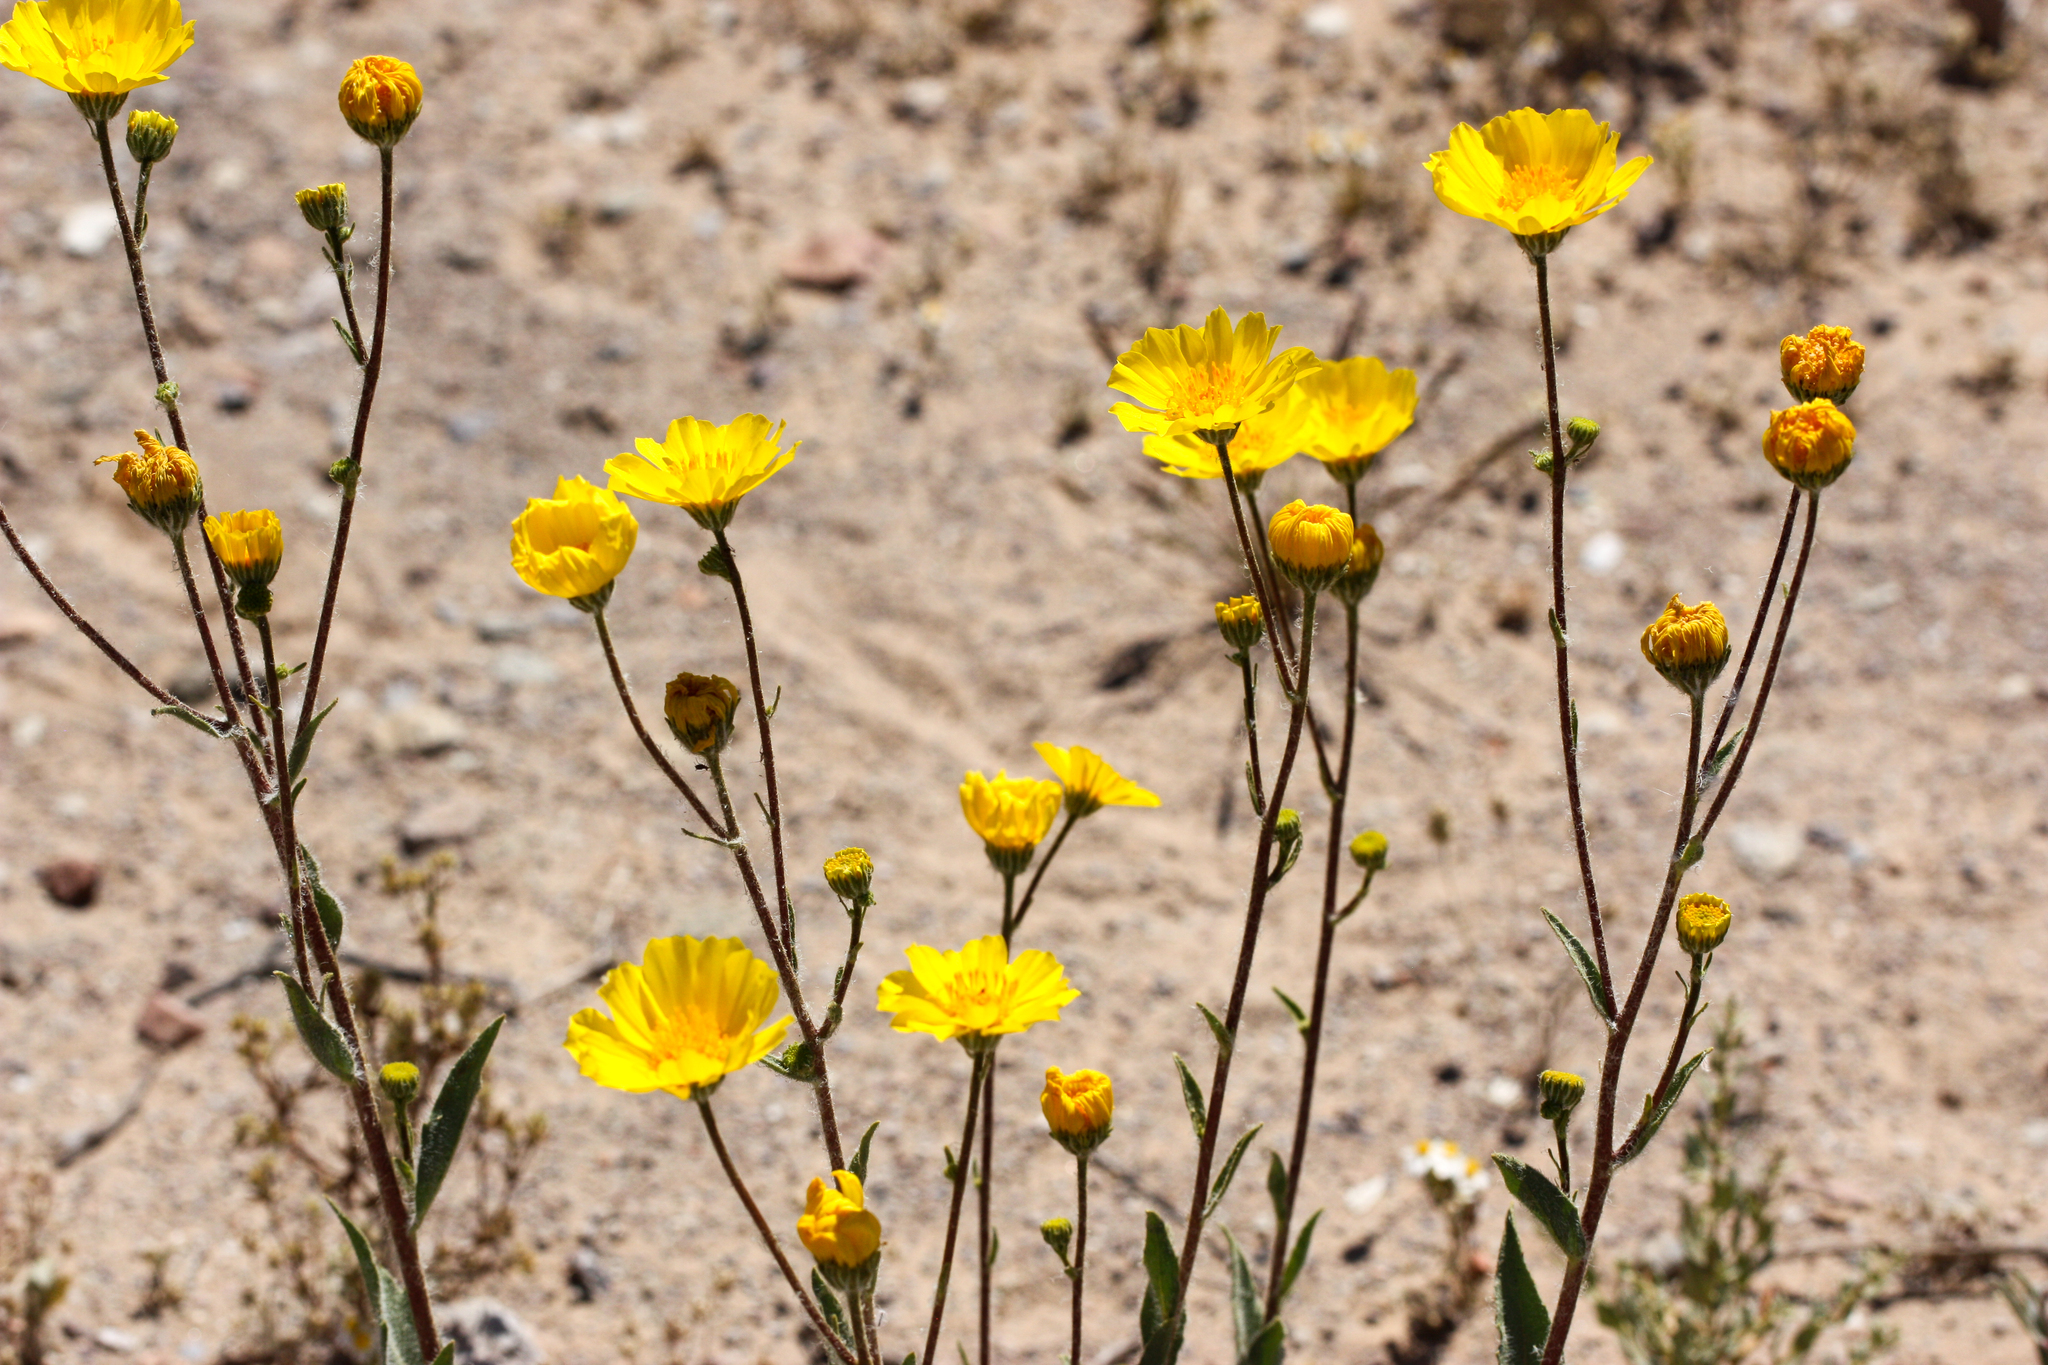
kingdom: Plantae
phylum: Tracheophyta
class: Magnoliopsida
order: Asterales
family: Asteraceae
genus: Geraea
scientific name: Geraea canescens
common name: Desert-gold
